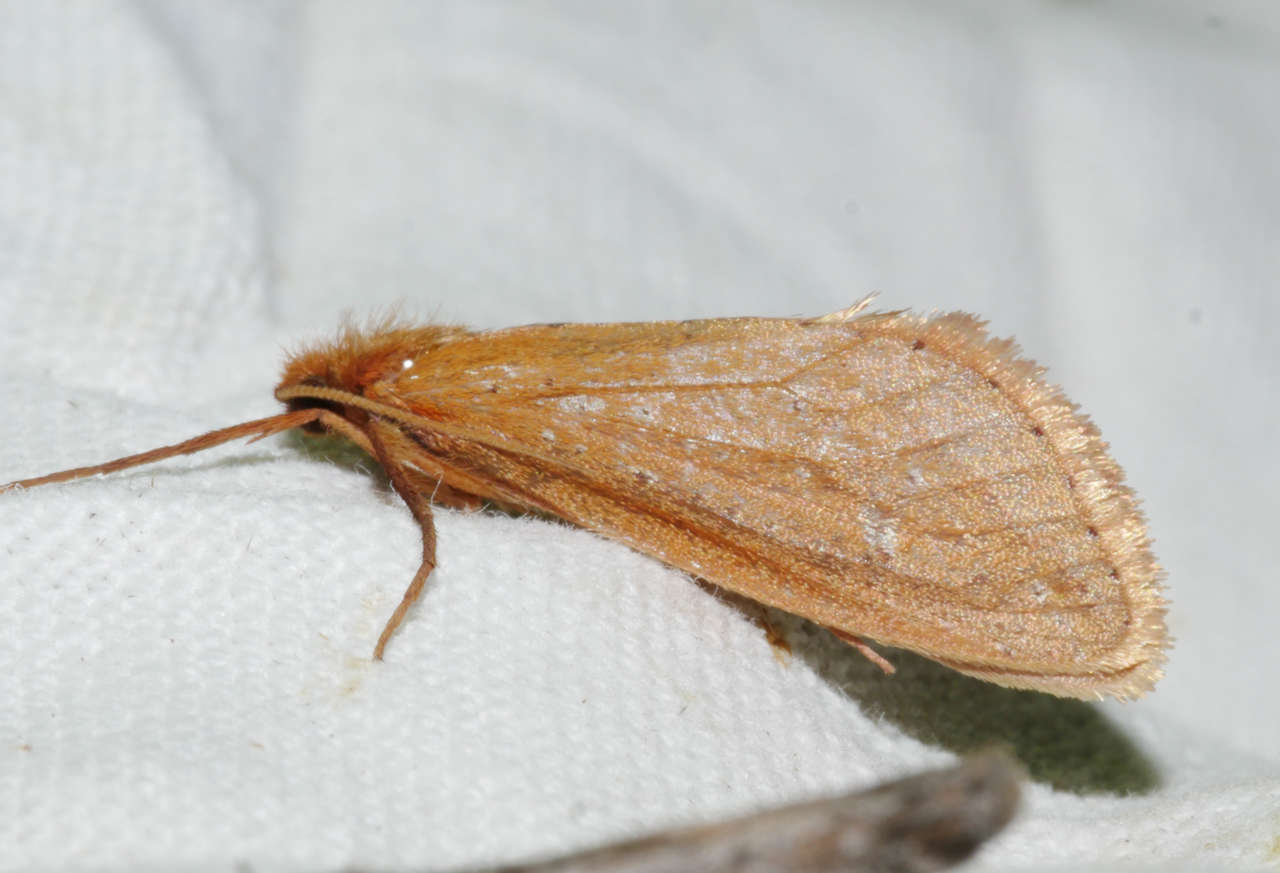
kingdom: Animalia
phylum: Arthropoda
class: Insecta
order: Lepidoptera
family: Hepialidae
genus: Fraus
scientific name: Fraus nanus
